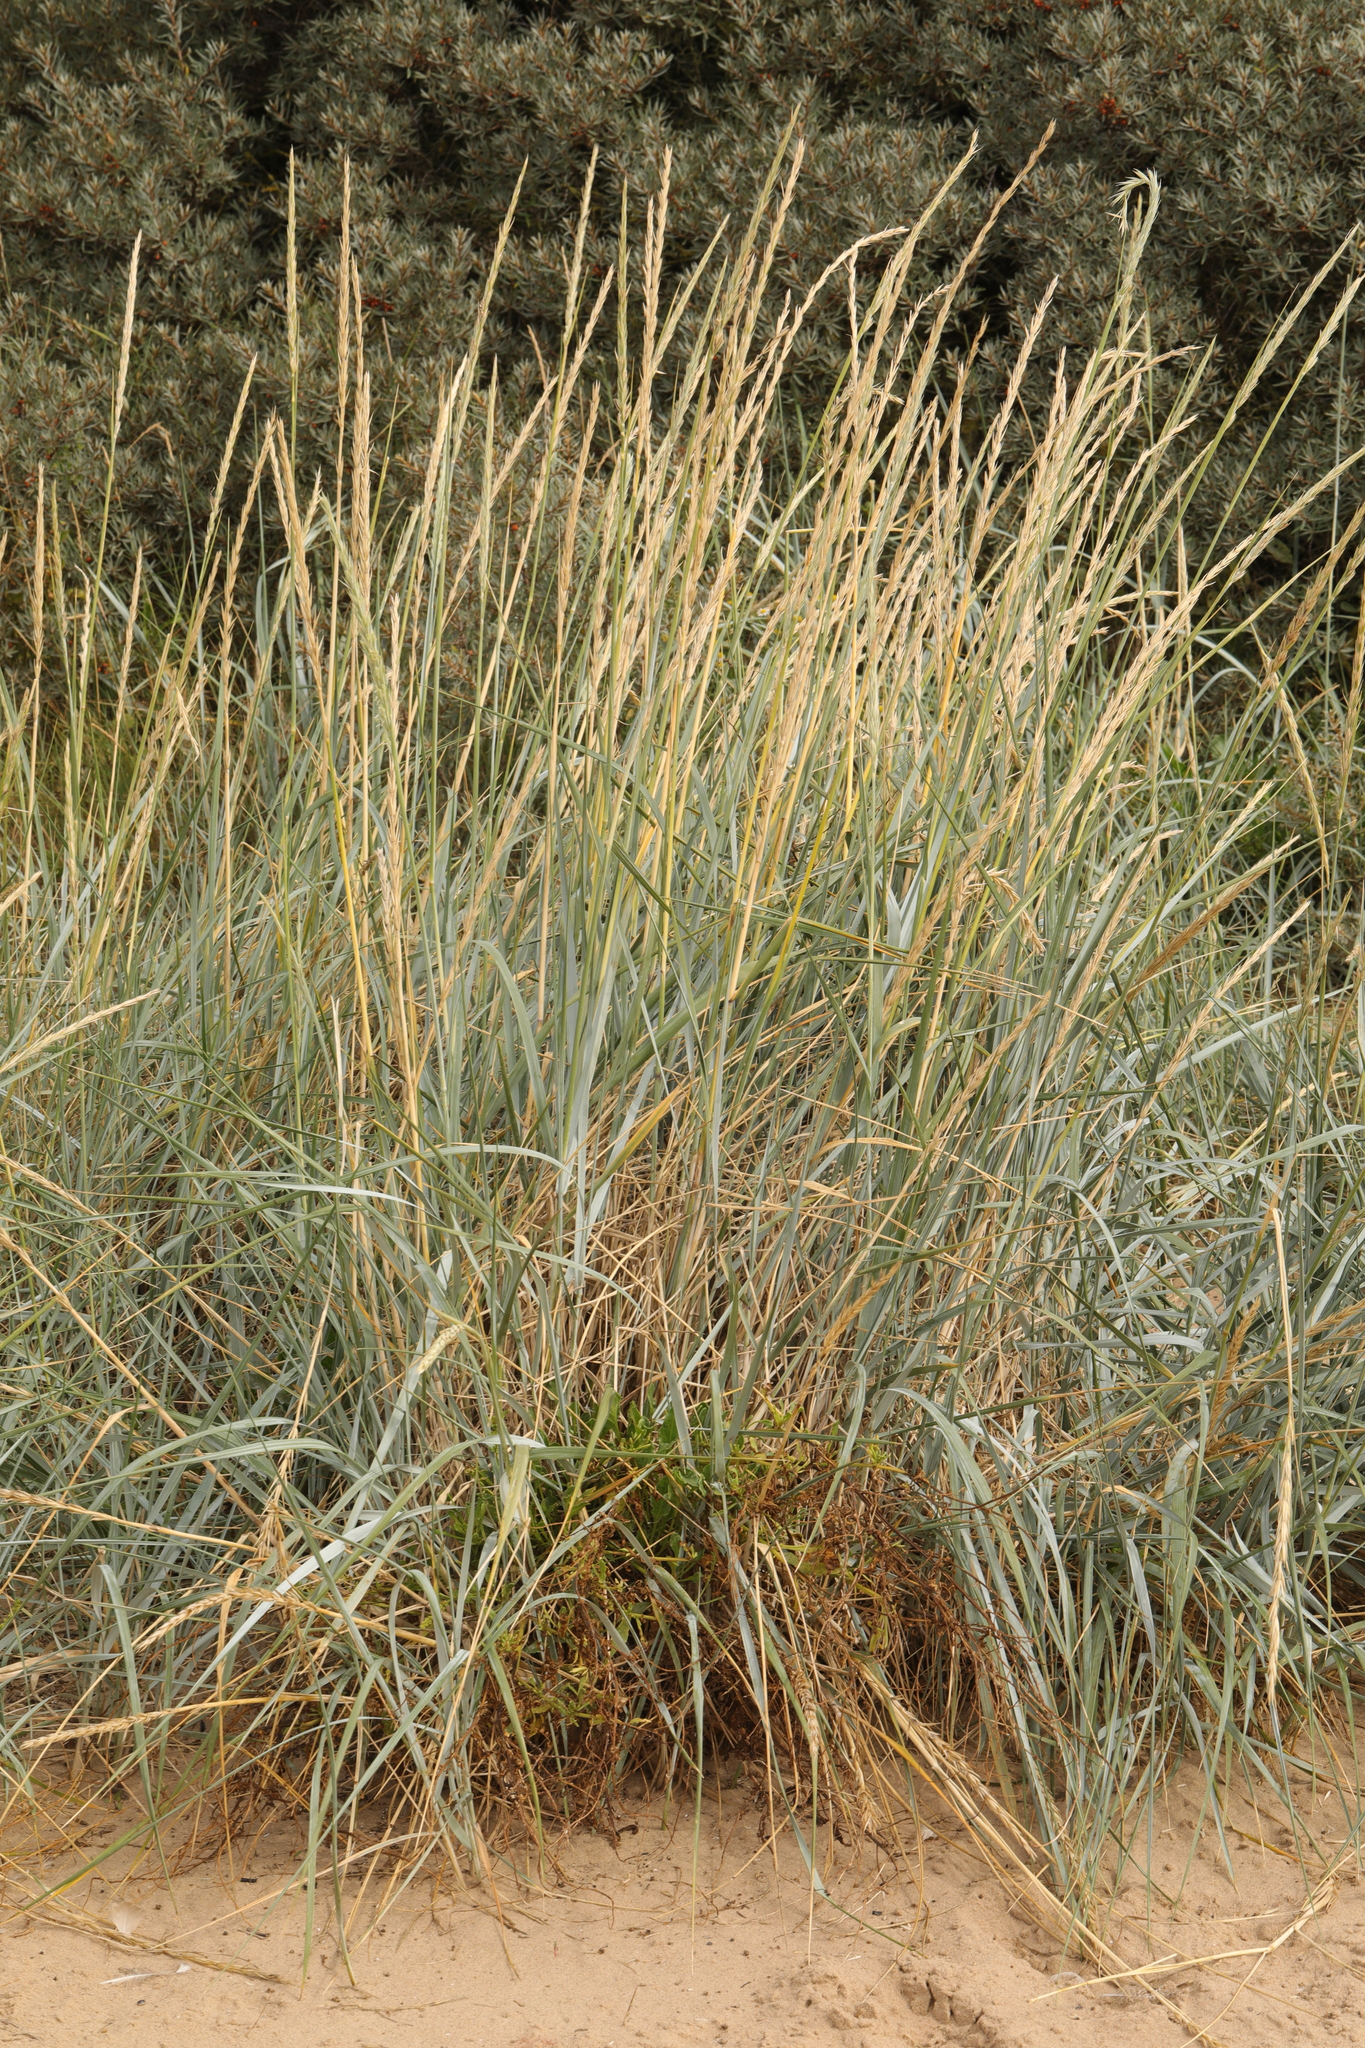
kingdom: Plantae
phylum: Tracheophyta
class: Liliopsida
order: Poales
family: Poaceae
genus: Leymus
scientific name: Leymus arenarius
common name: Lyme-grass
